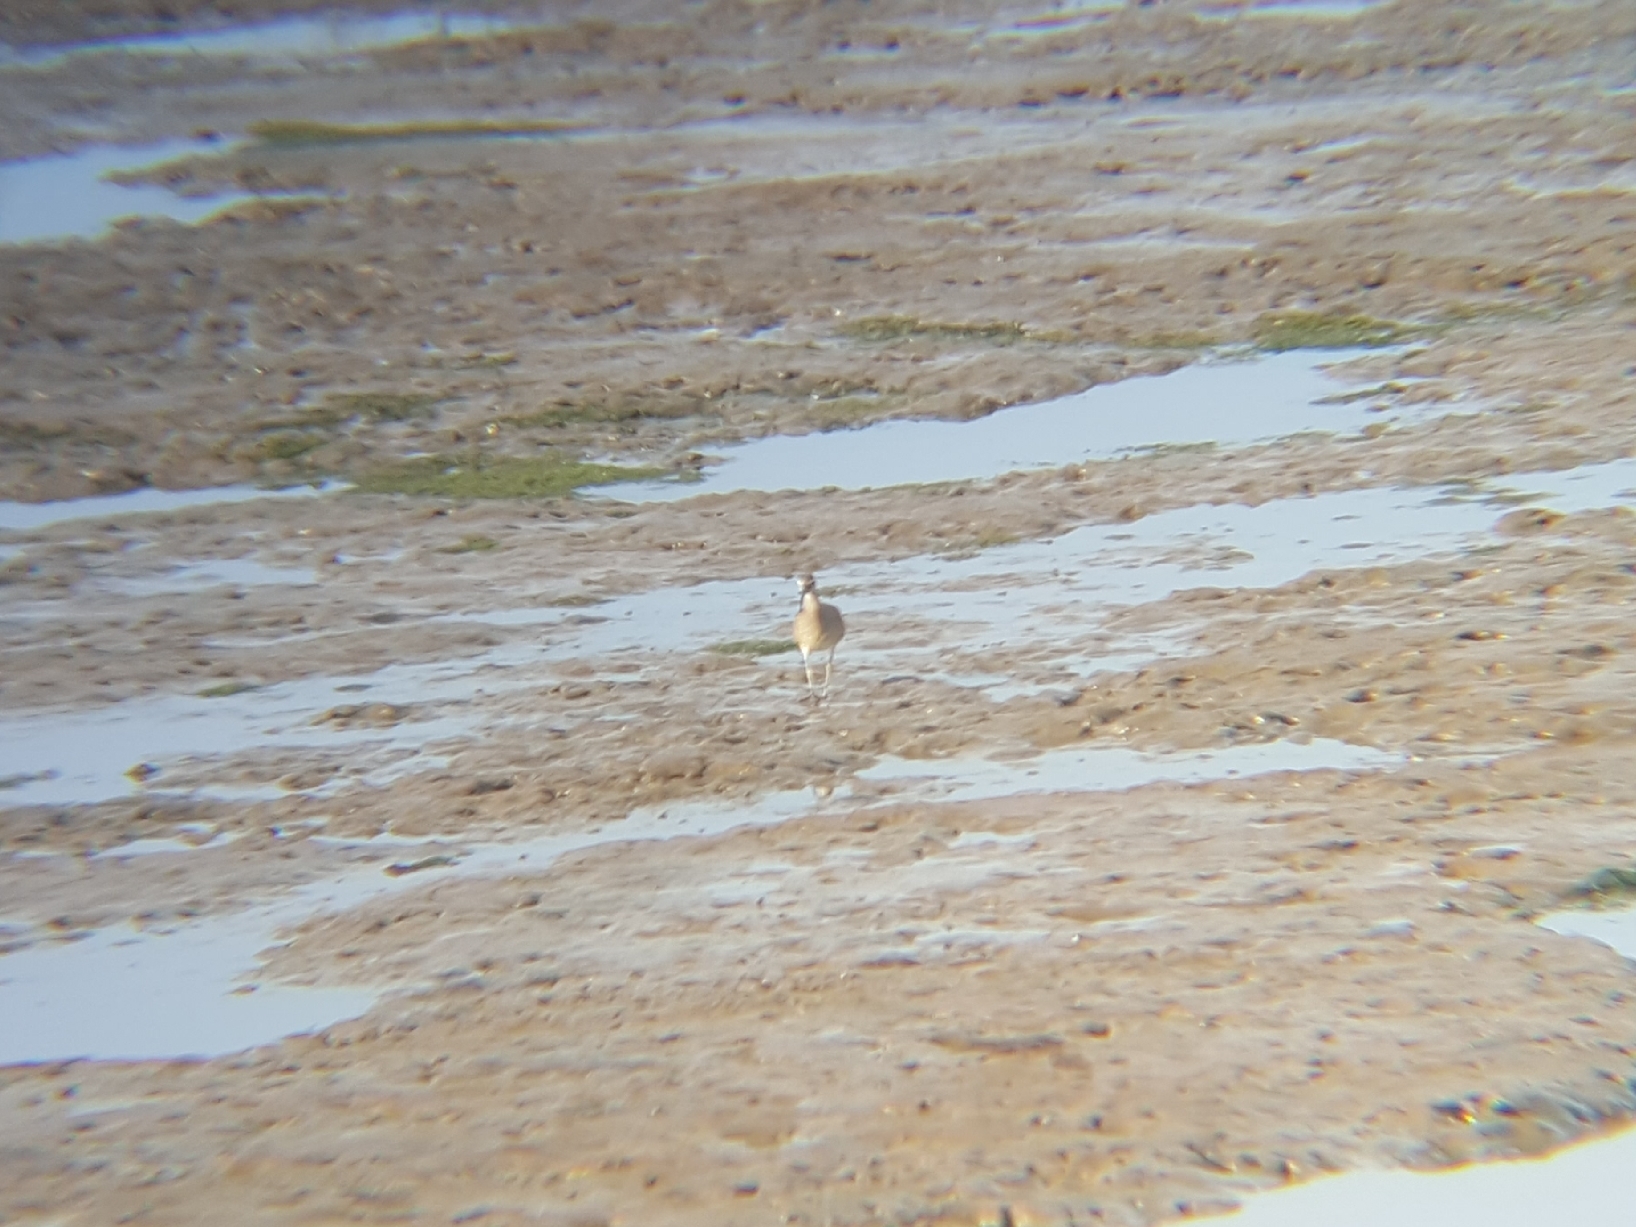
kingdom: Animalia
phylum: Chordata
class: Aves
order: Charadriiformes
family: Scolopacidae
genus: Numenius
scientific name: Numenius phaeopus
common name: Whimbrel
